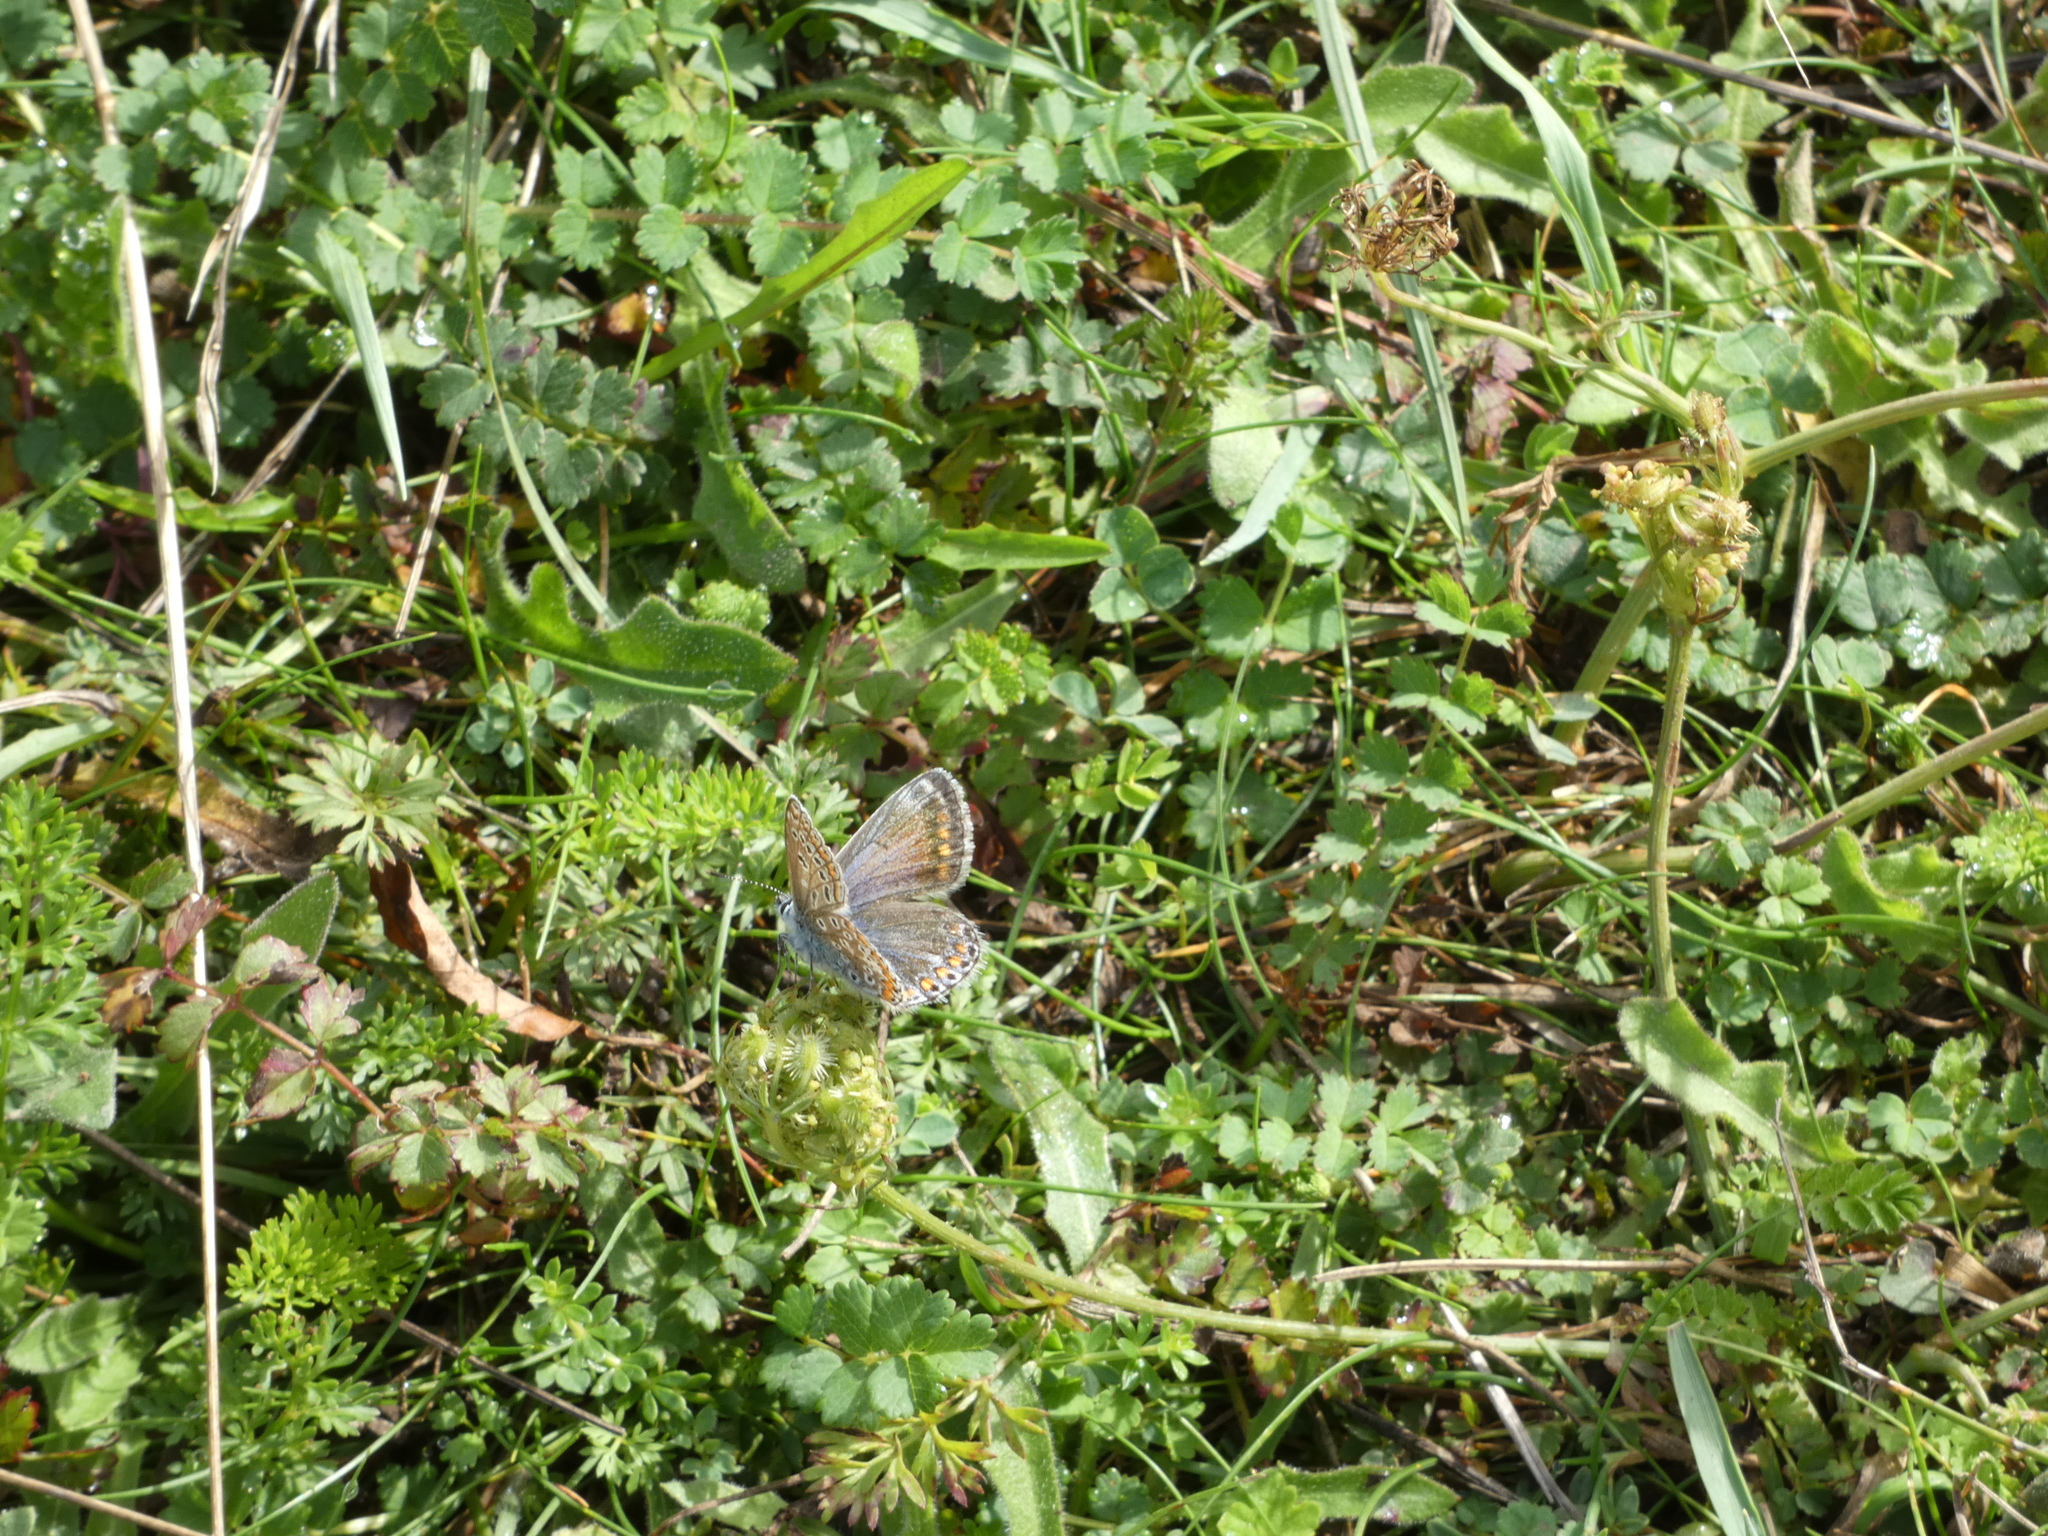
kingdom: Animalia
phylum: Arthropoda
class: Insecta
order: Lepidoptera
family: Lycaenidae
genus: Polyommatus
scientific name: Polyommatus icarus
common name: Common blue
